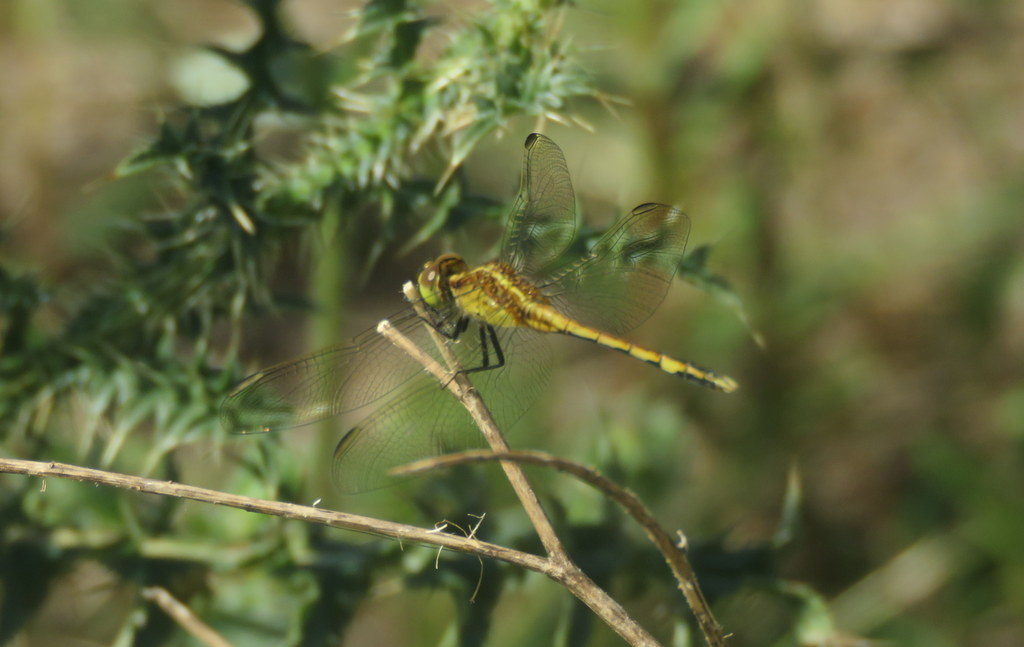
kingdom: Animalia
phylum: Arthropoda
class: Insecta
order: Odonata
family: Libellulidae
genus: Erythrodiplax
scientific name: Erythrodiplax nigricans
